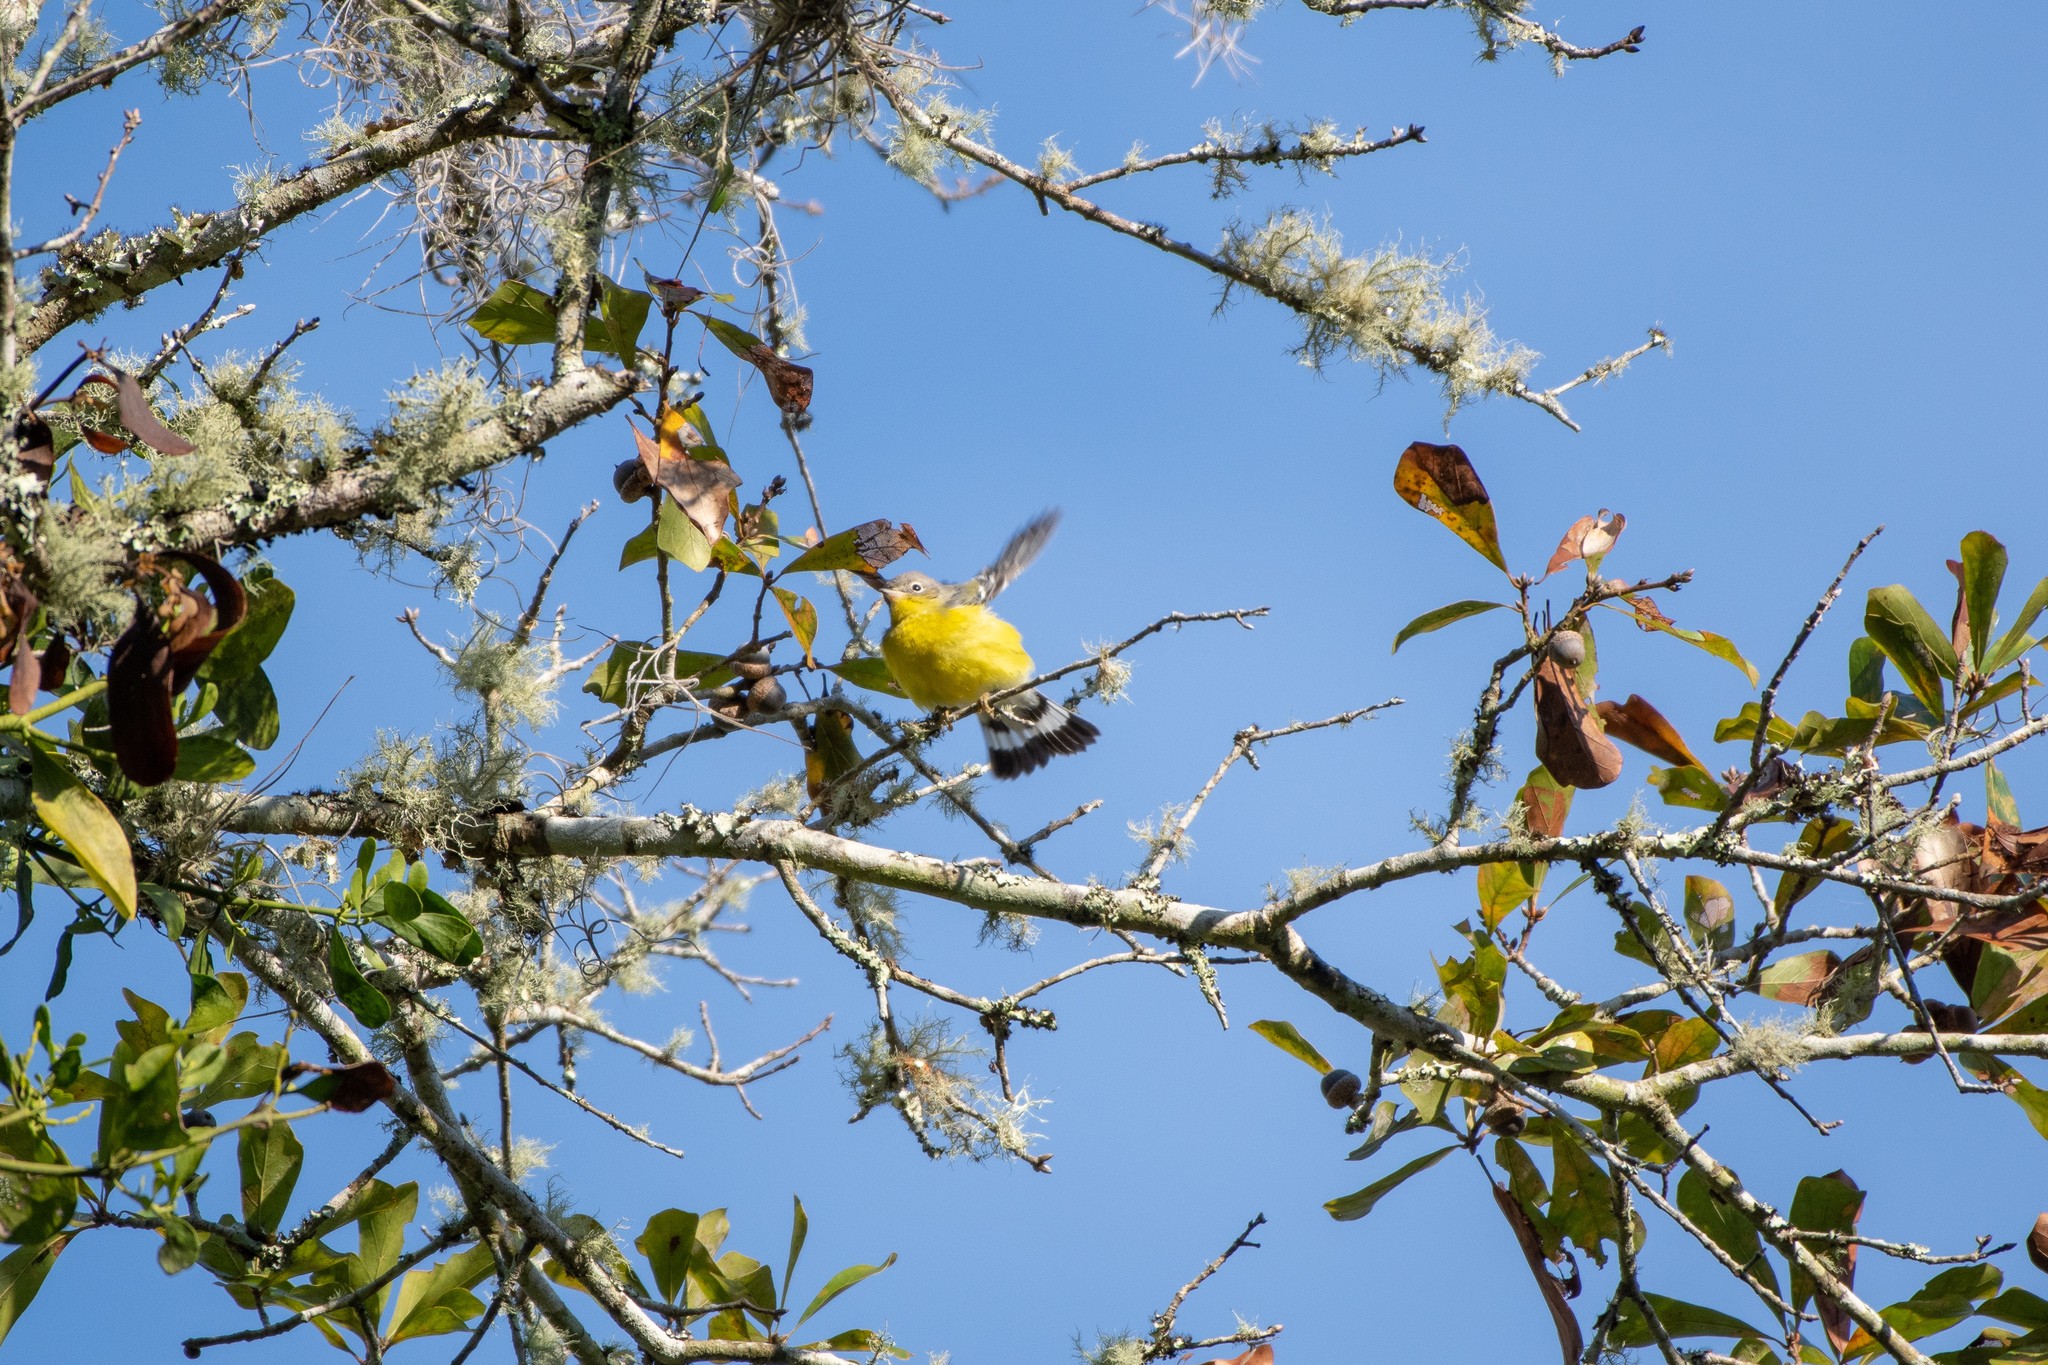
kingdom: Animalia
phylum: Chordata
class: Aves
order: Passeriformes
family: Parulidae
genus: Setophaga
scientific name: Setophaga magnolia
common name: Magnolia warbler
